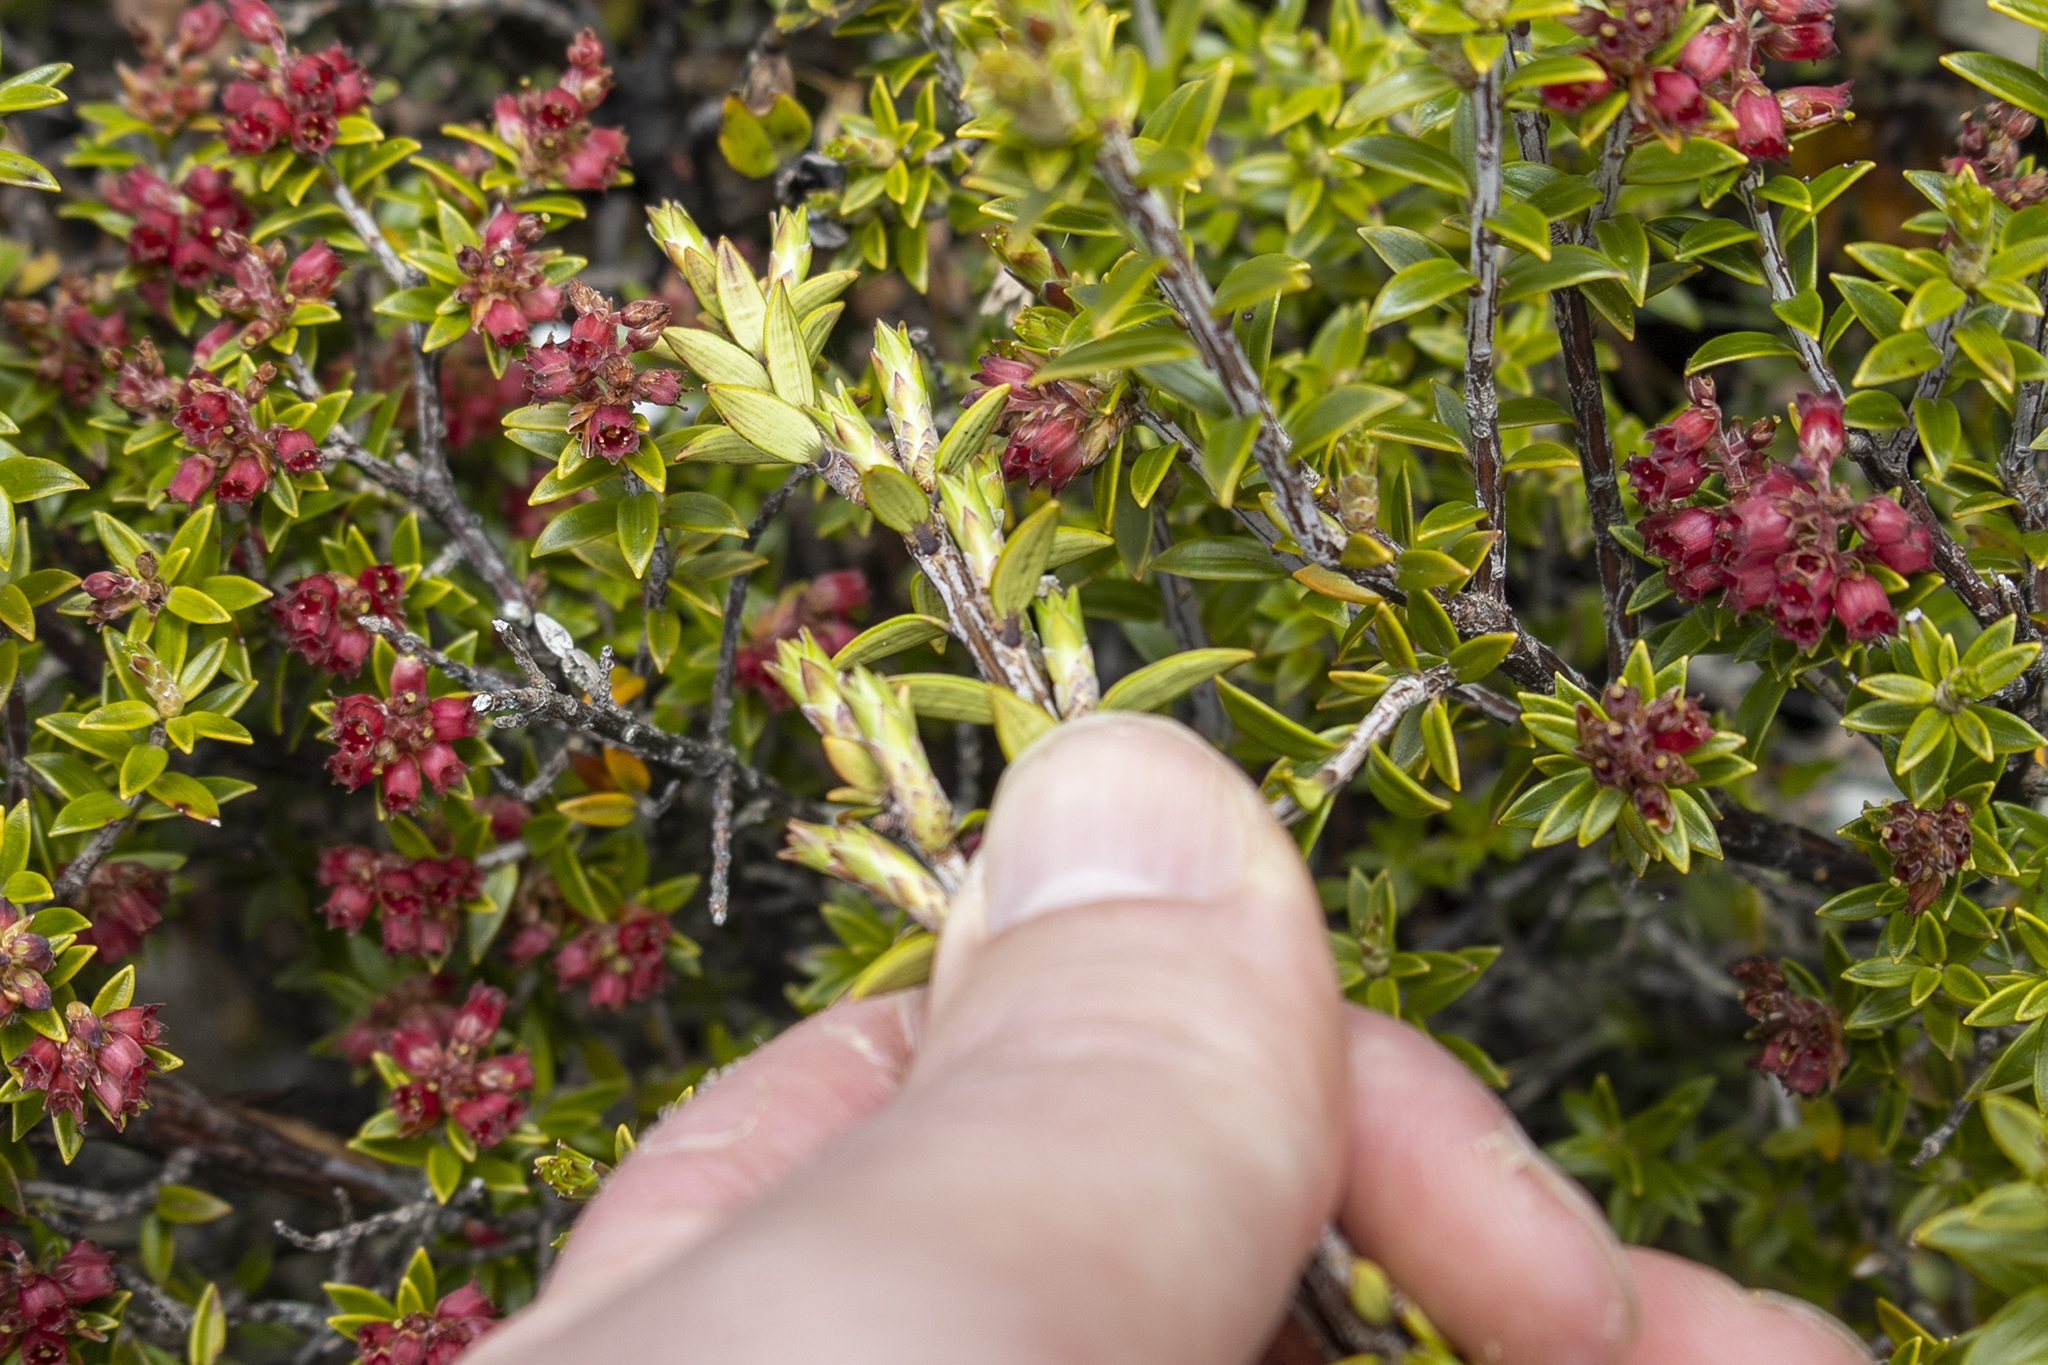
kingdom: Plantae
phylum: Tracheophyta
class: Magnoliopsida
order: Ericales
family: Ericaceae
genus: Archeria
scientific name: Archeria traversii
